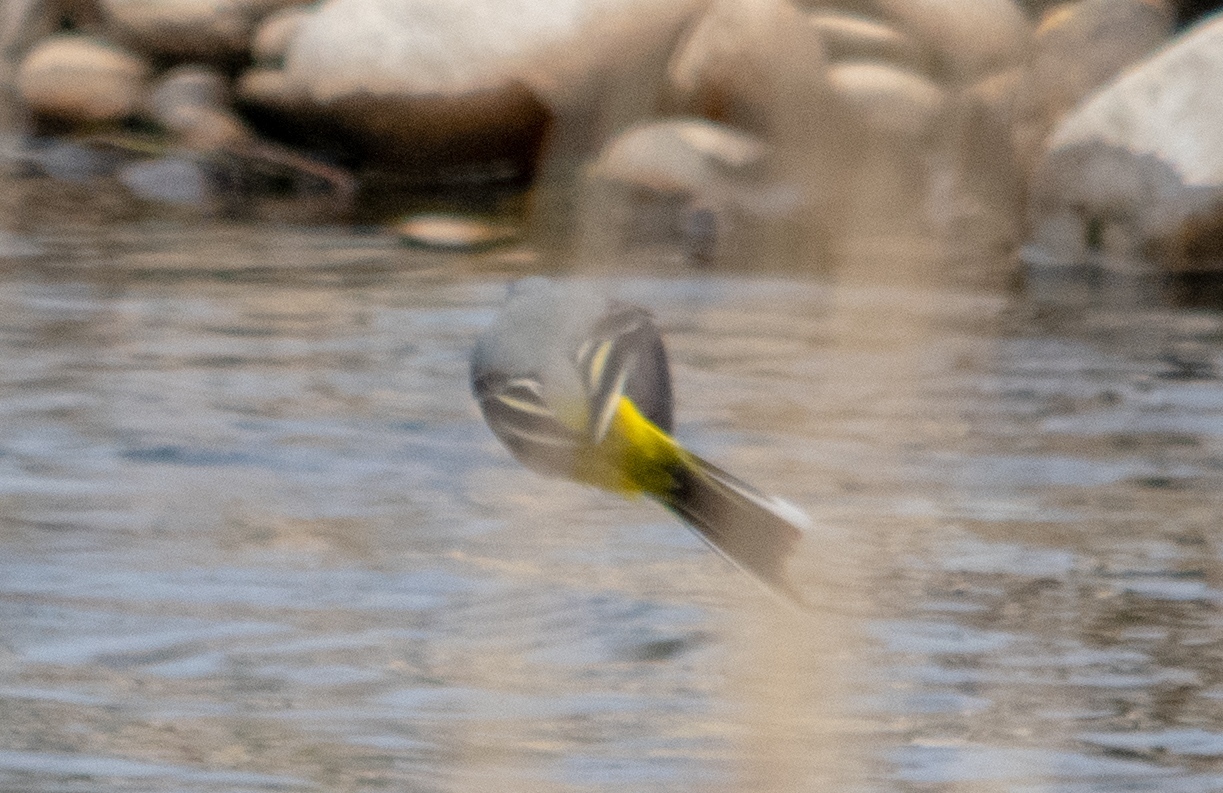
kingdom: Animalia
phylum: Chordata
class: Aves
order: Passeriformes
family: Motacillidae
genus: Motacilla
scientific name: Motacilla cinerea
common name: Grey wagtail
